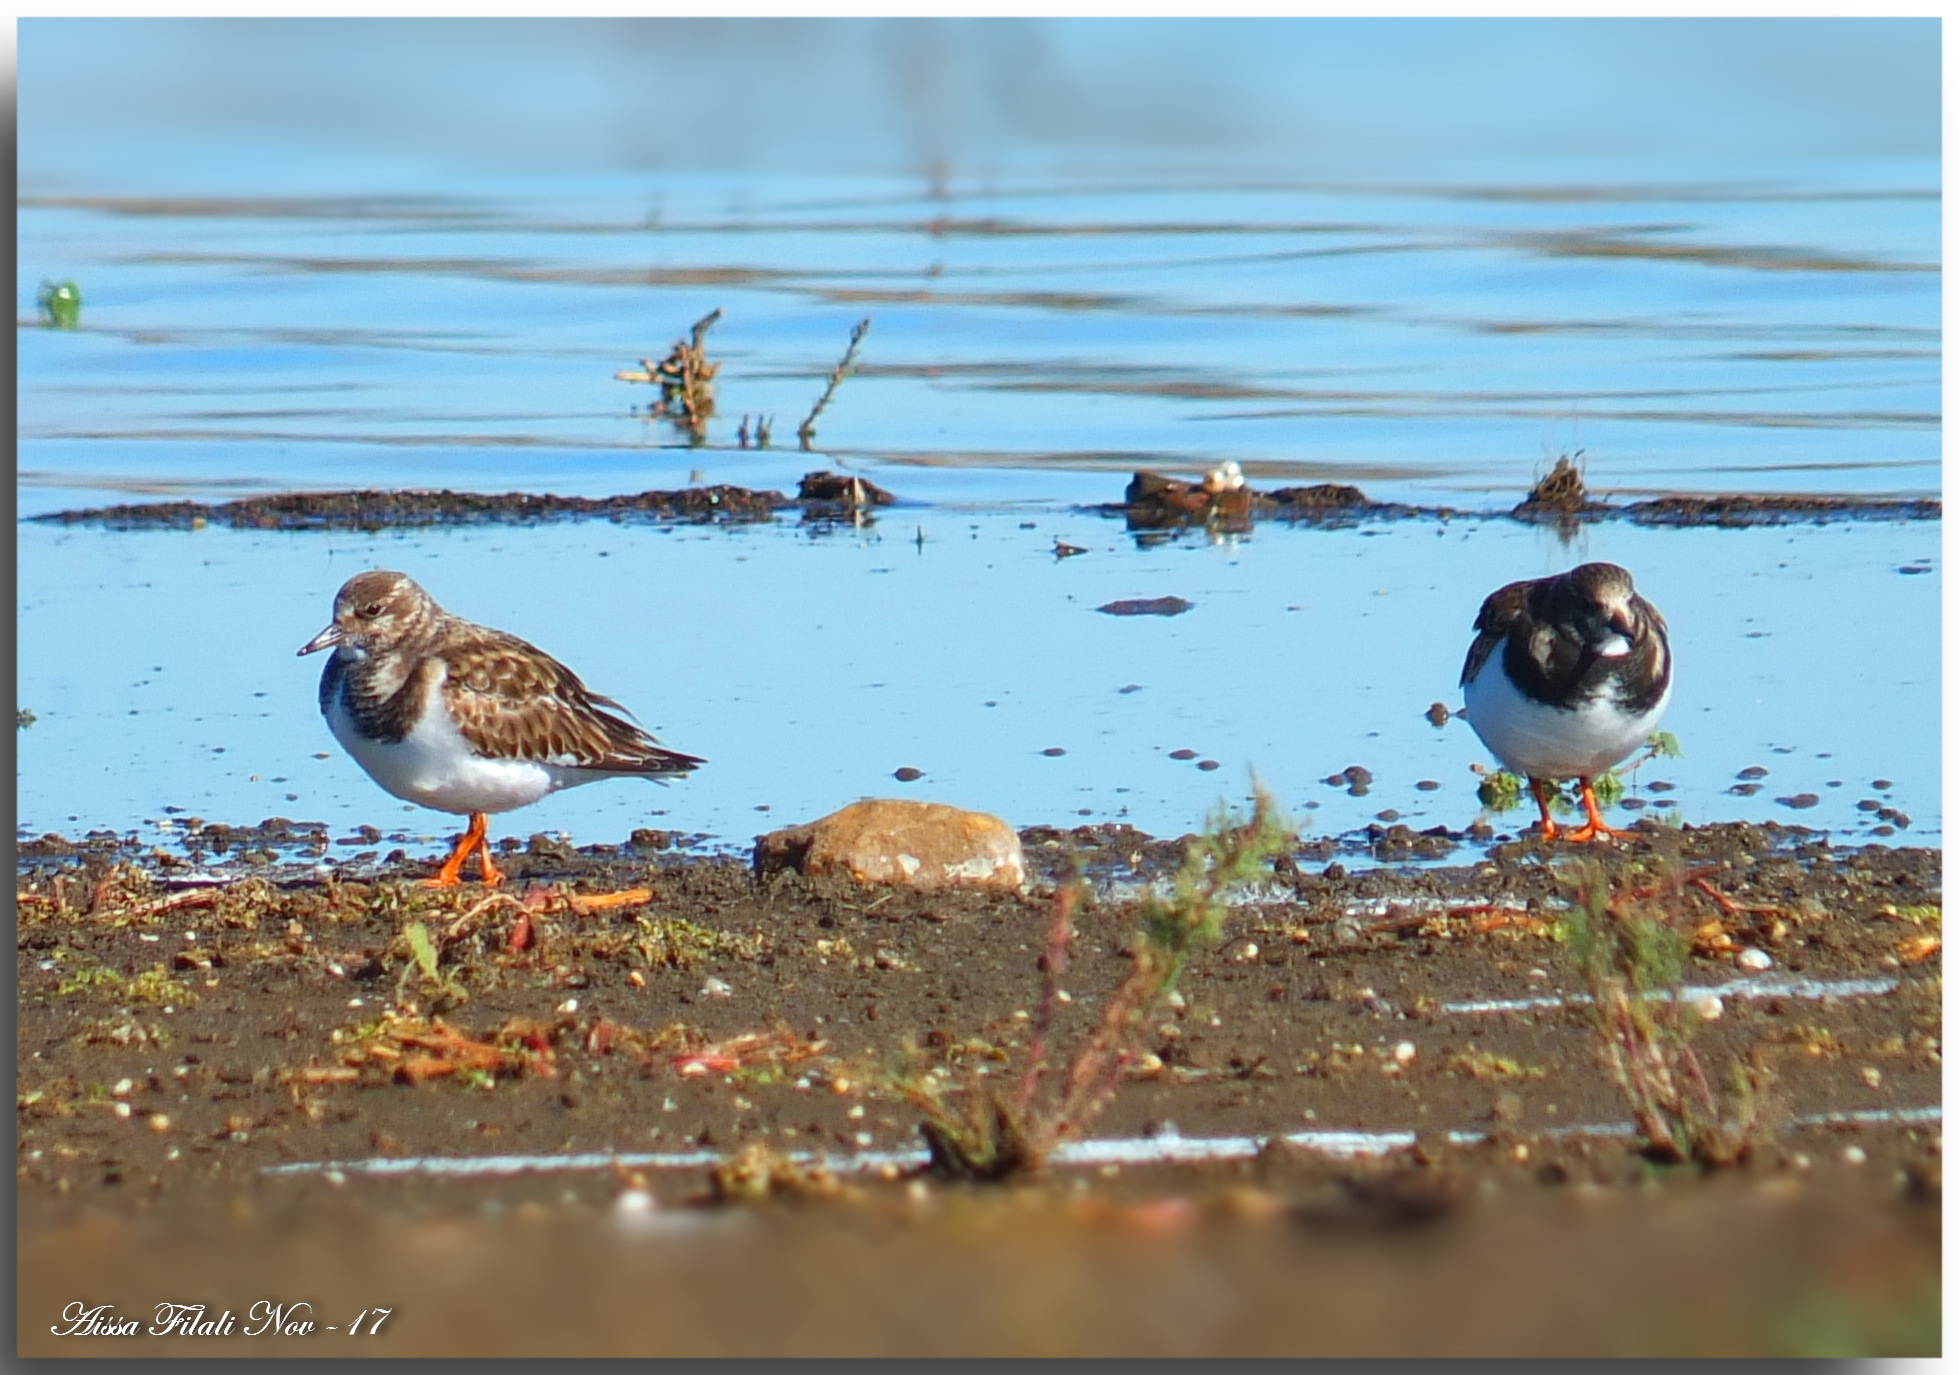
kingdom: Animalia
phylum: Chordata
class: Aves
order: Charadriiformes
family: Scolopacidae
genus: Arenaria
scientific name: Arenaria interpres
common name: Ruddy turnstone
